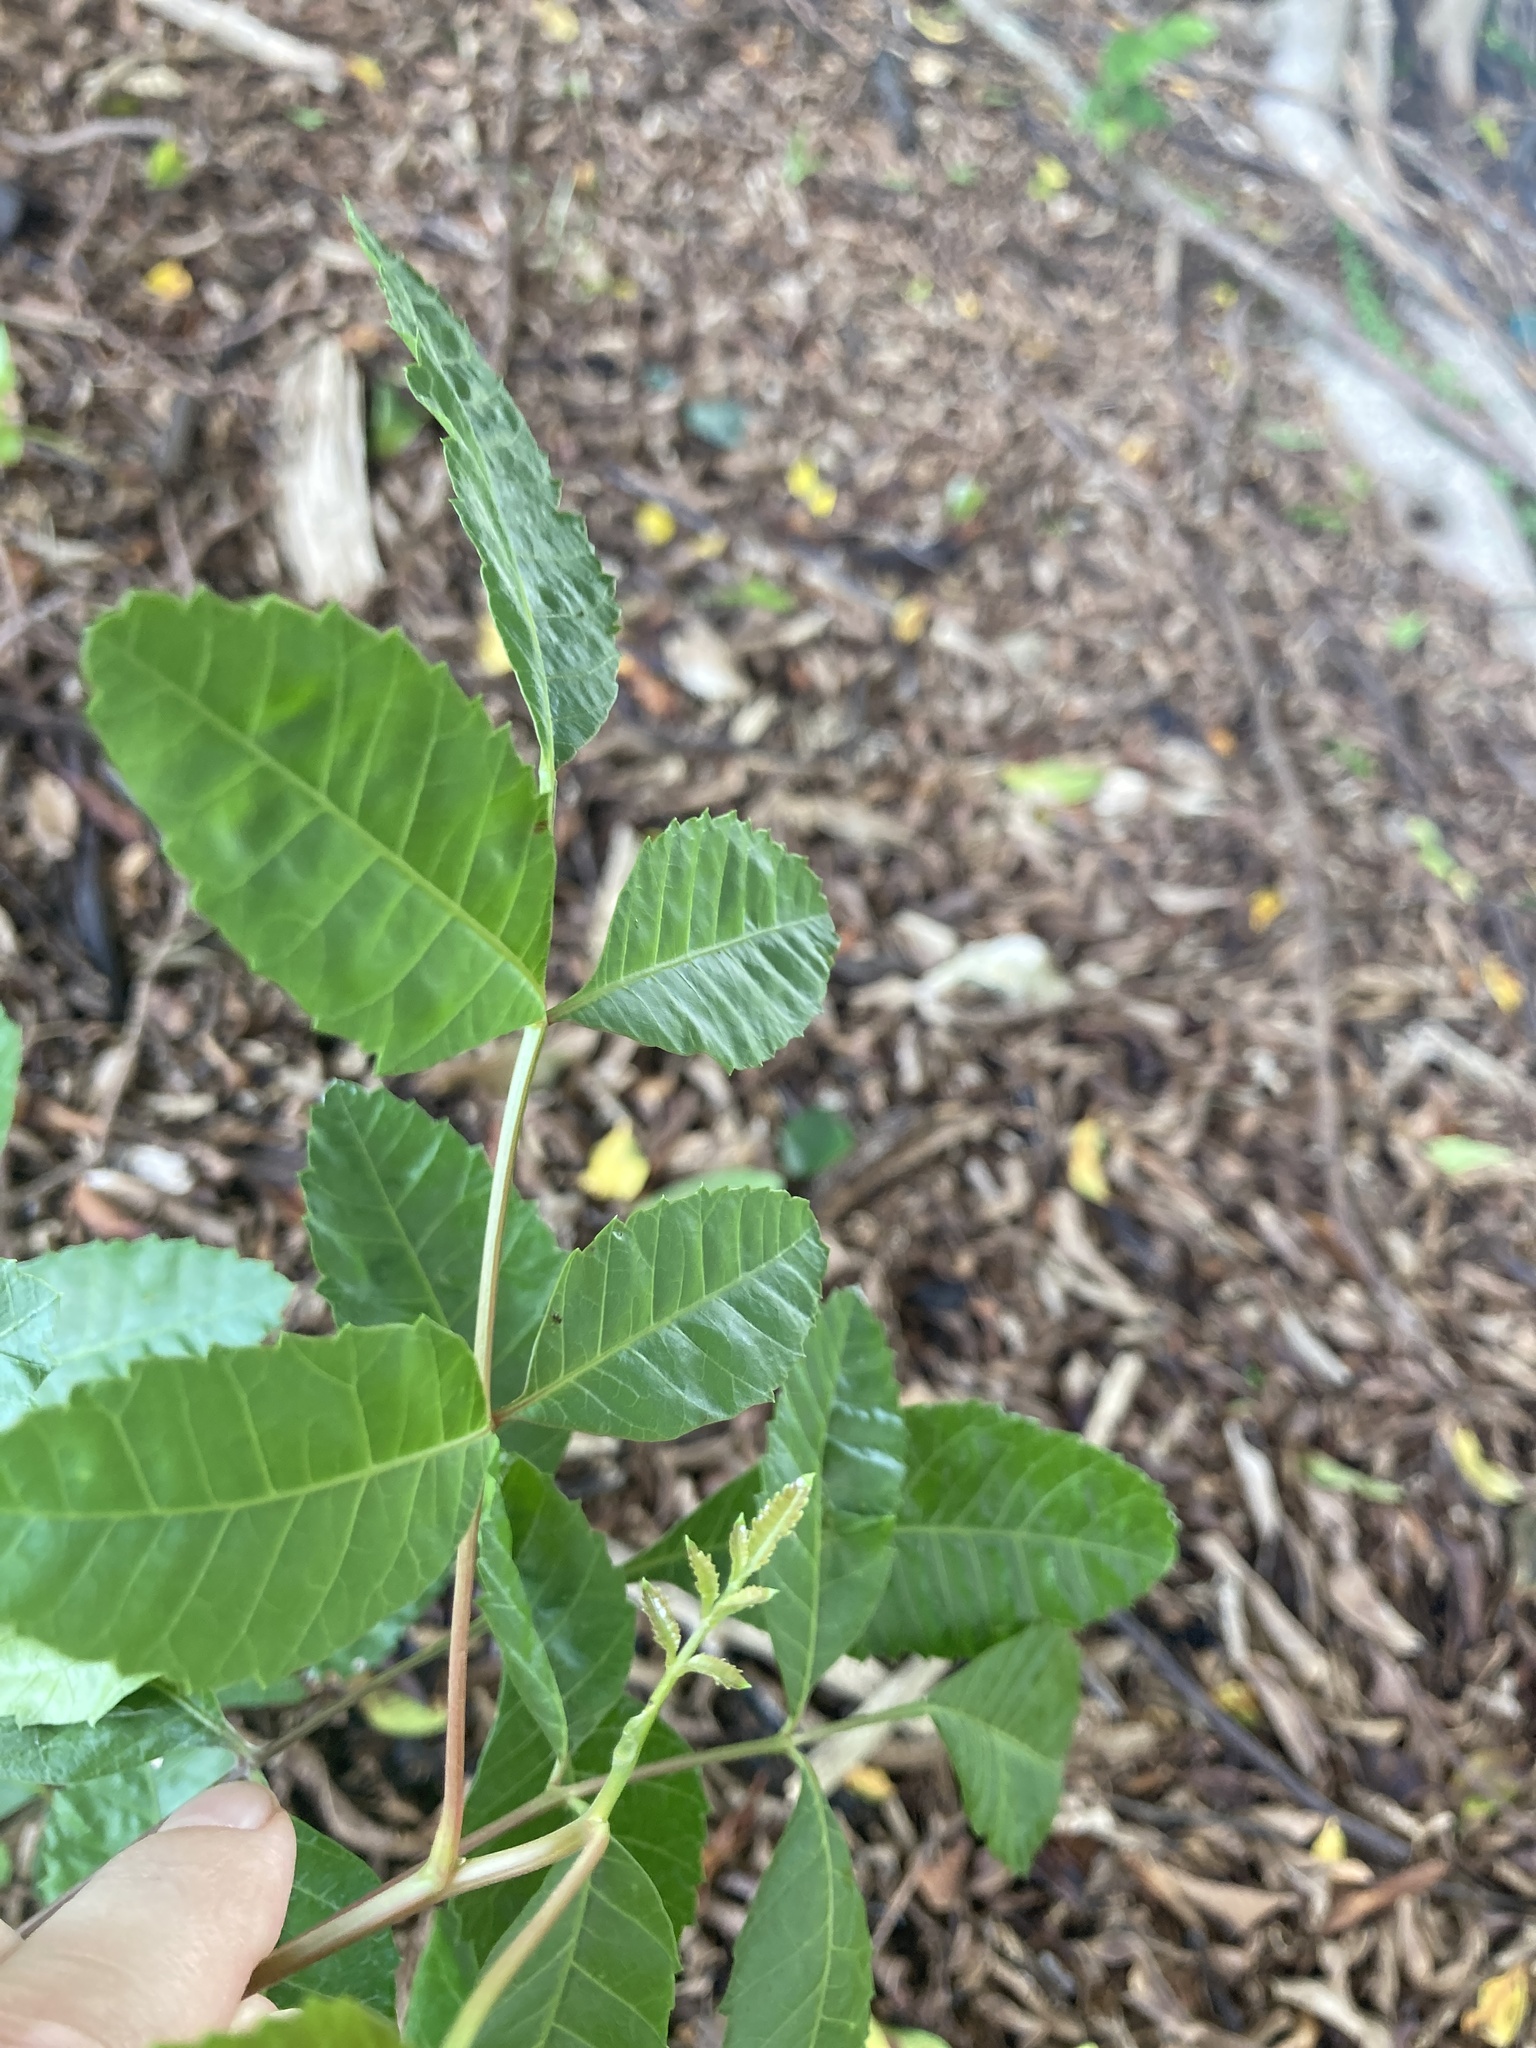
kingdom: Plantae
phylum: Tracheophyta
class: Magnoliopsida
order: Sapindales
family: Anacardiaceae
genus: Schinus
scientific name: Schinus terebinthifolia
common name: Brazilian peppertree
